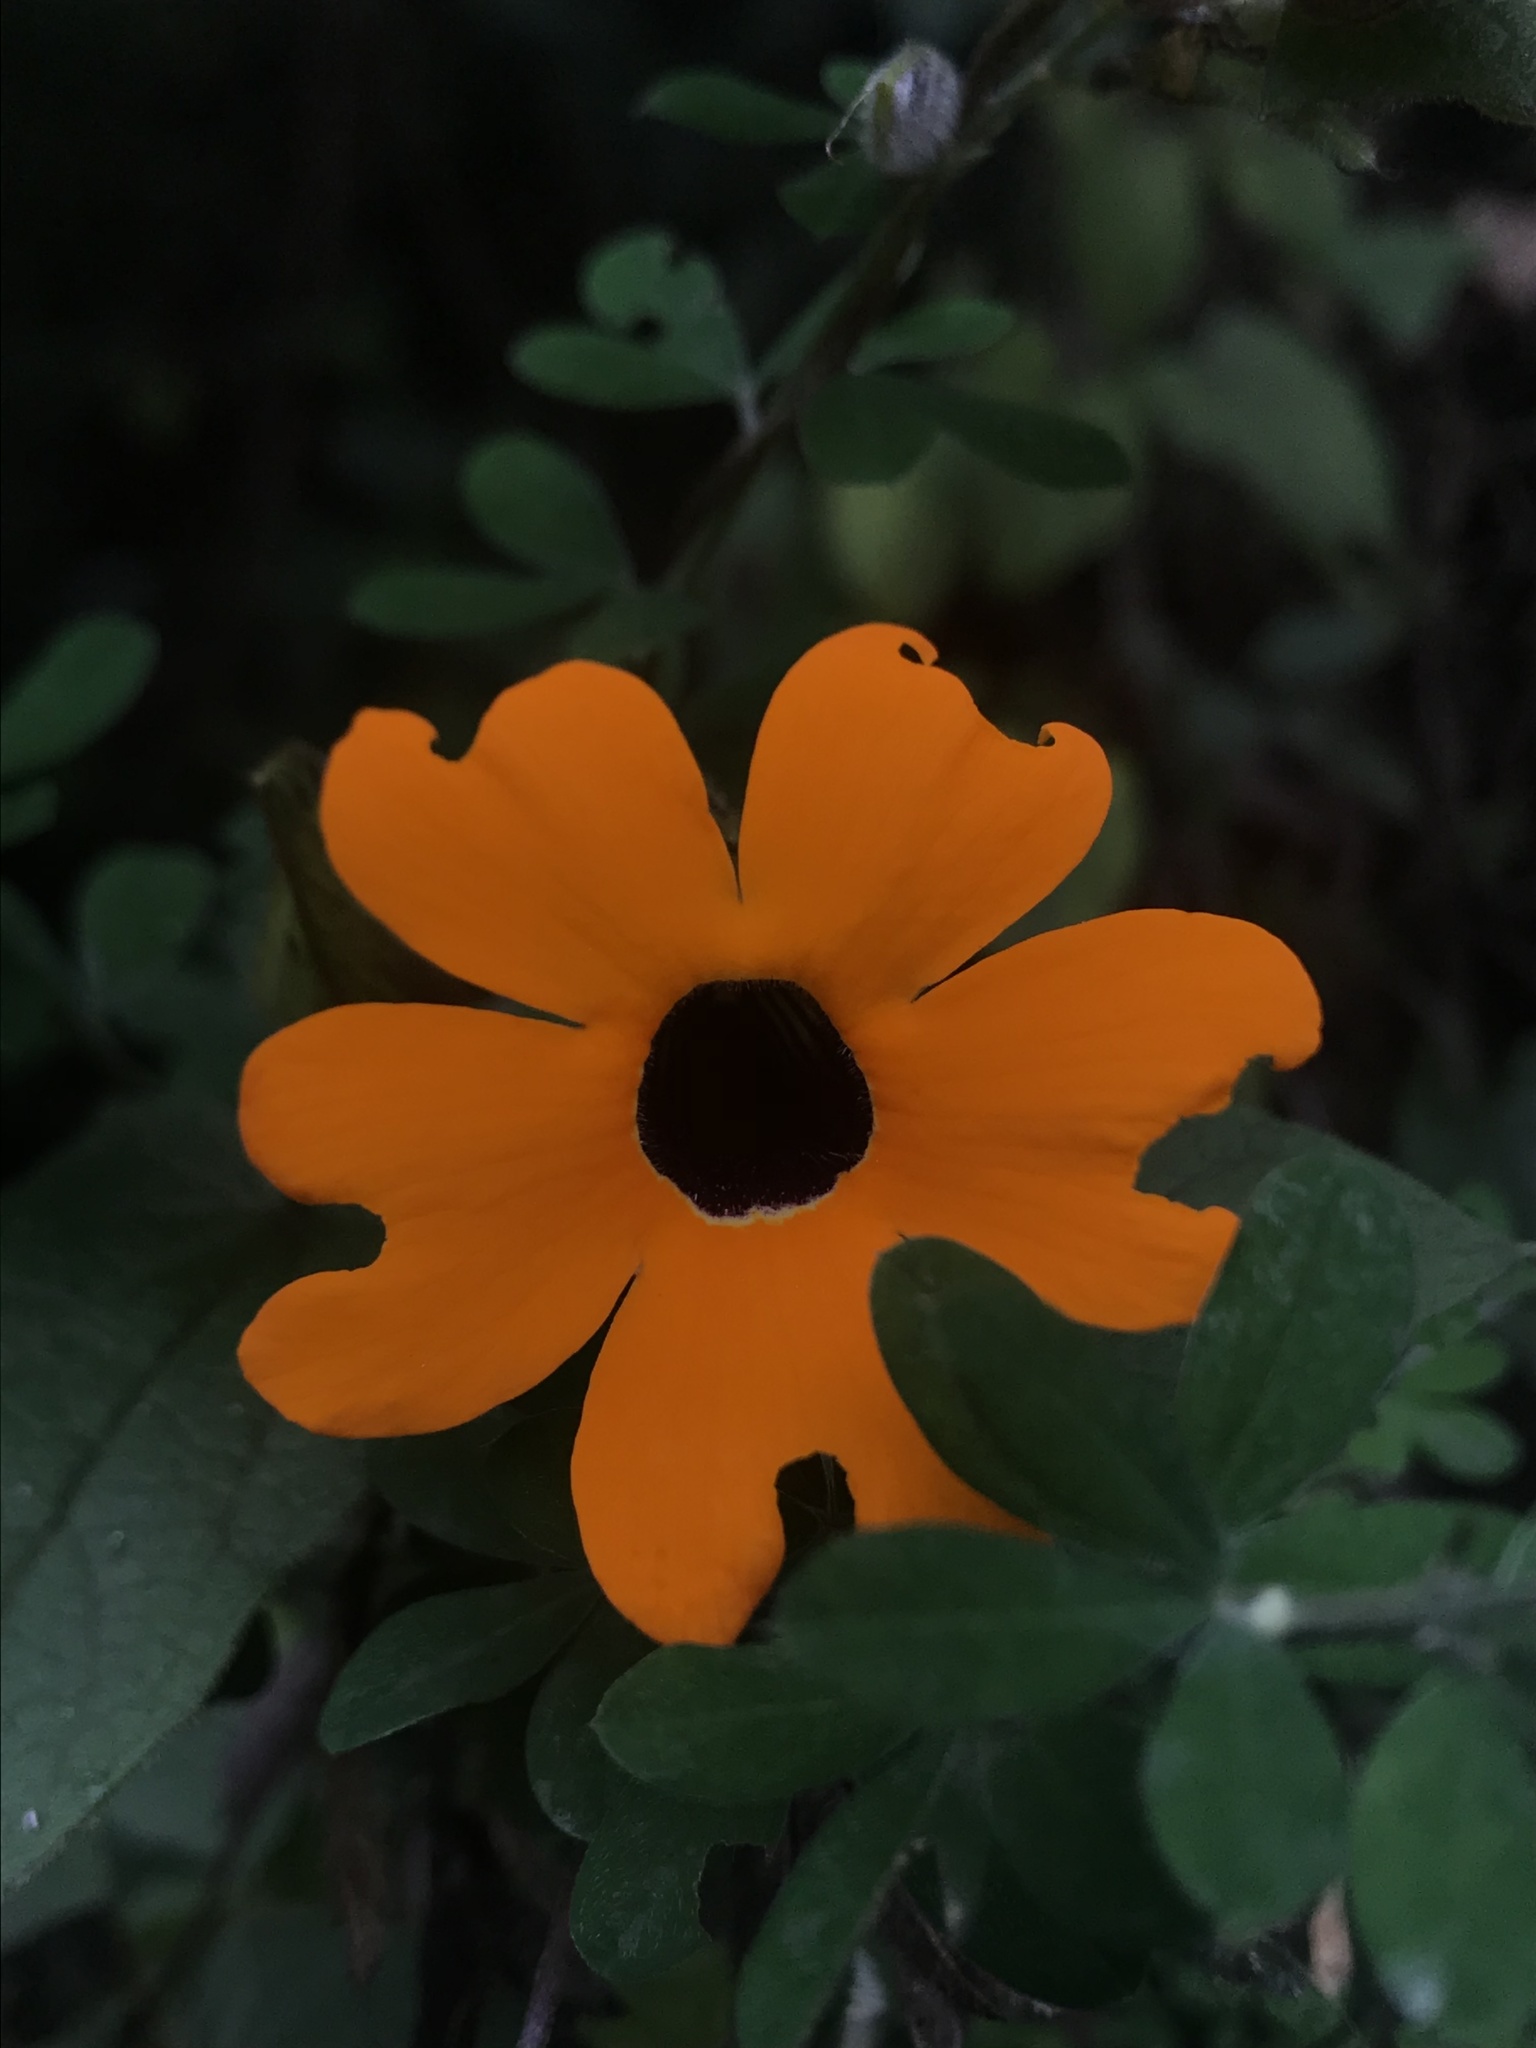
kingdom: Plantae
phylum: Tracheophyta
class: Magnoliopsida
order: Lamiales
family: Acanthaceae
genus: Thunbergia
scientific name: Thunbergia alata
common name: Blackeyed susan vine
